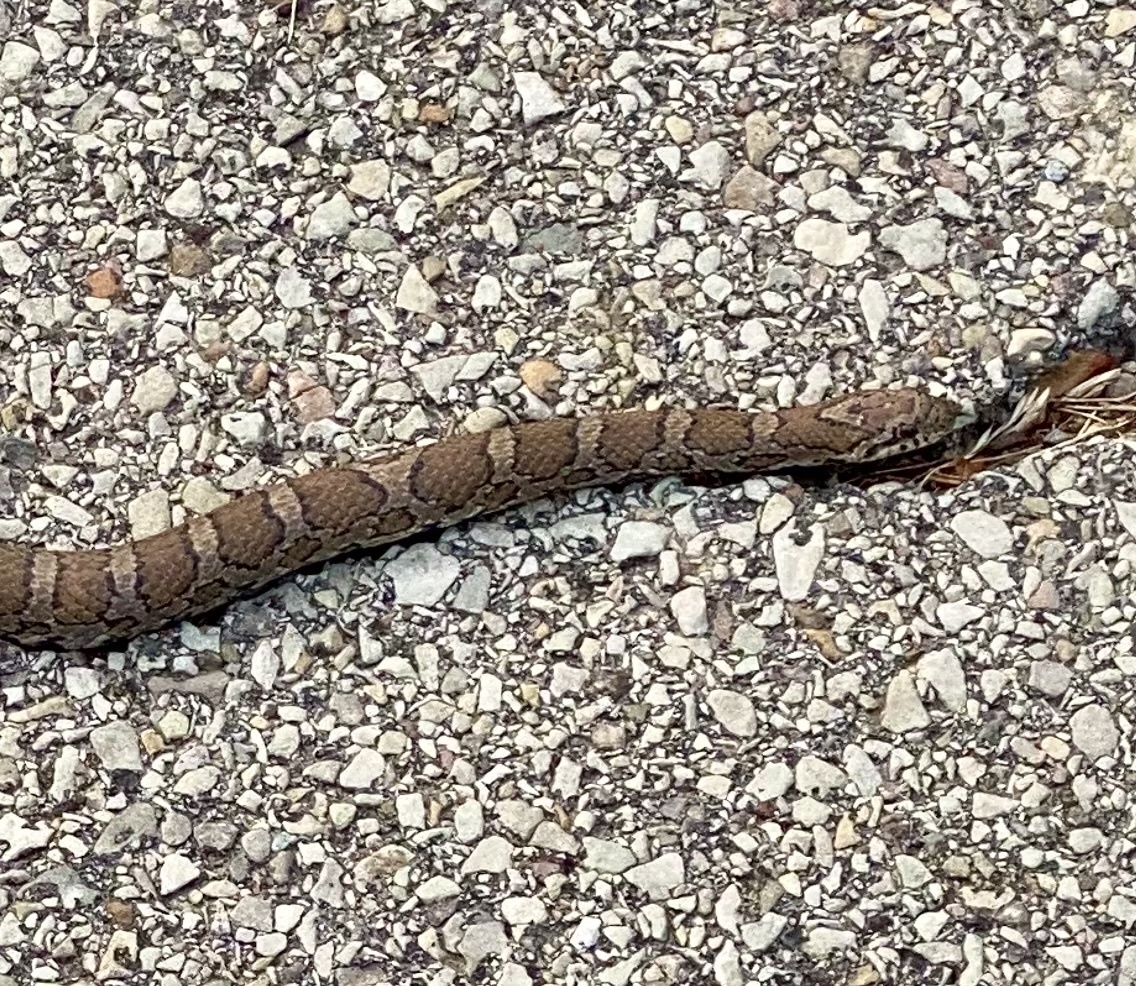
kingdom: Animalia
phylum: Chordata
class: Squamata
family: Colubridae
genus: Lampropeltis
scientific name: Lampropeltis triangulum
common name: Eastern milksnake
